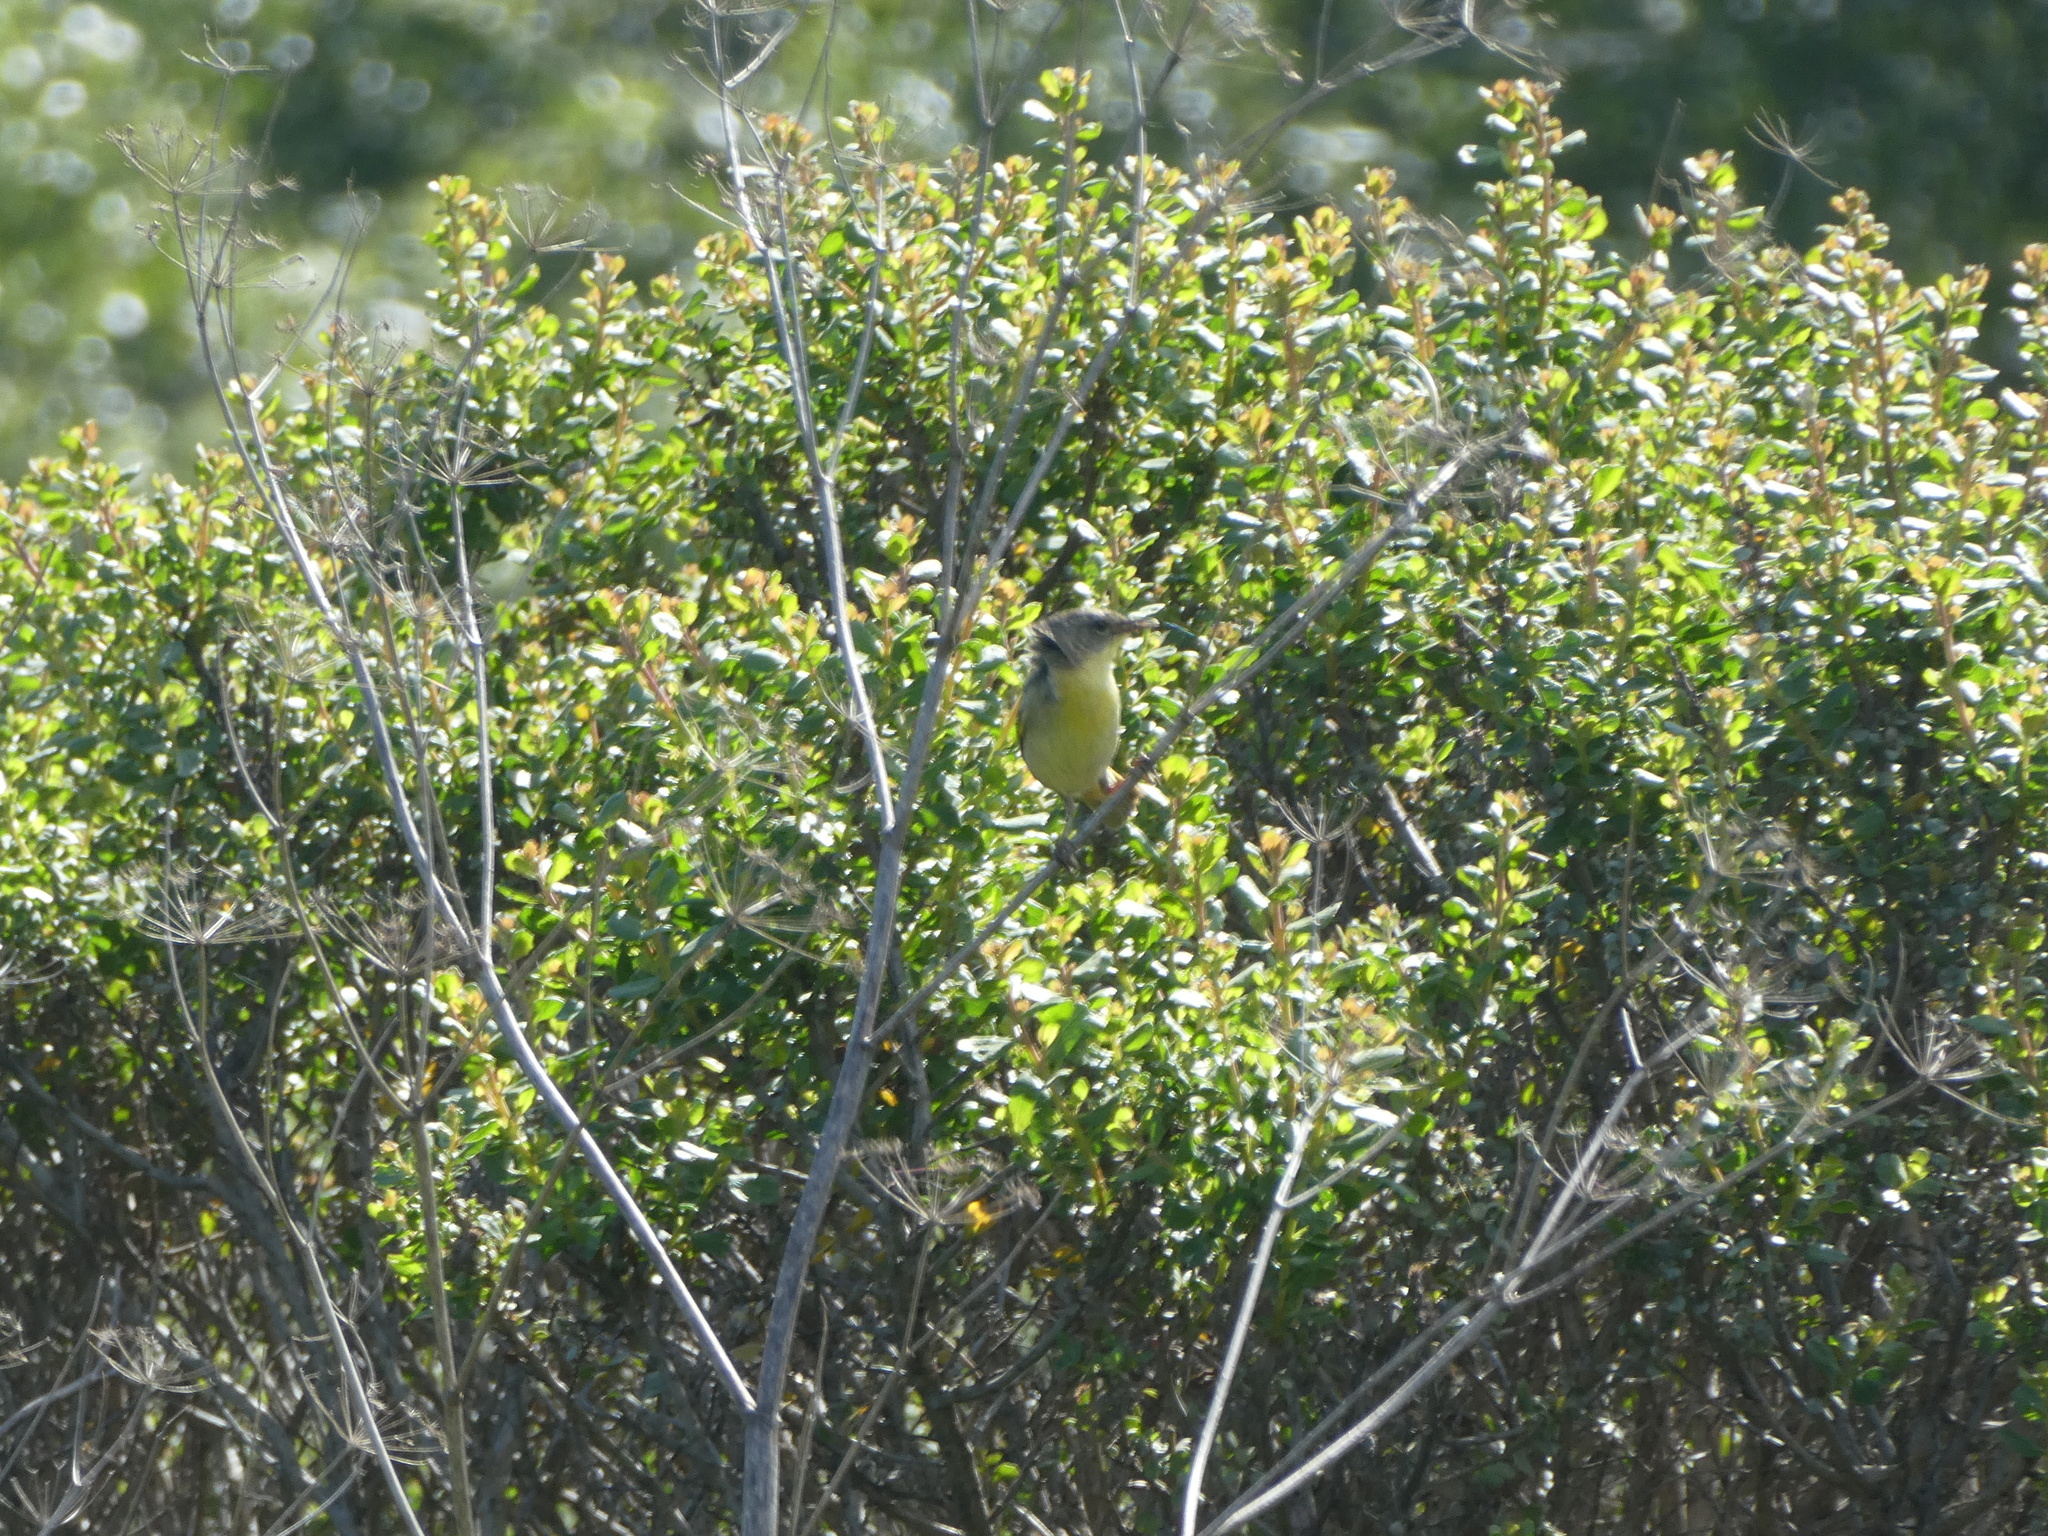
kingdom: Animalia
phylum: Chordata
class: Aves
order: Passeriformes
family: Parulidae
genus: Geothlypis
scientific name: Geothlypis trichas
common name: Common yellowthroat
